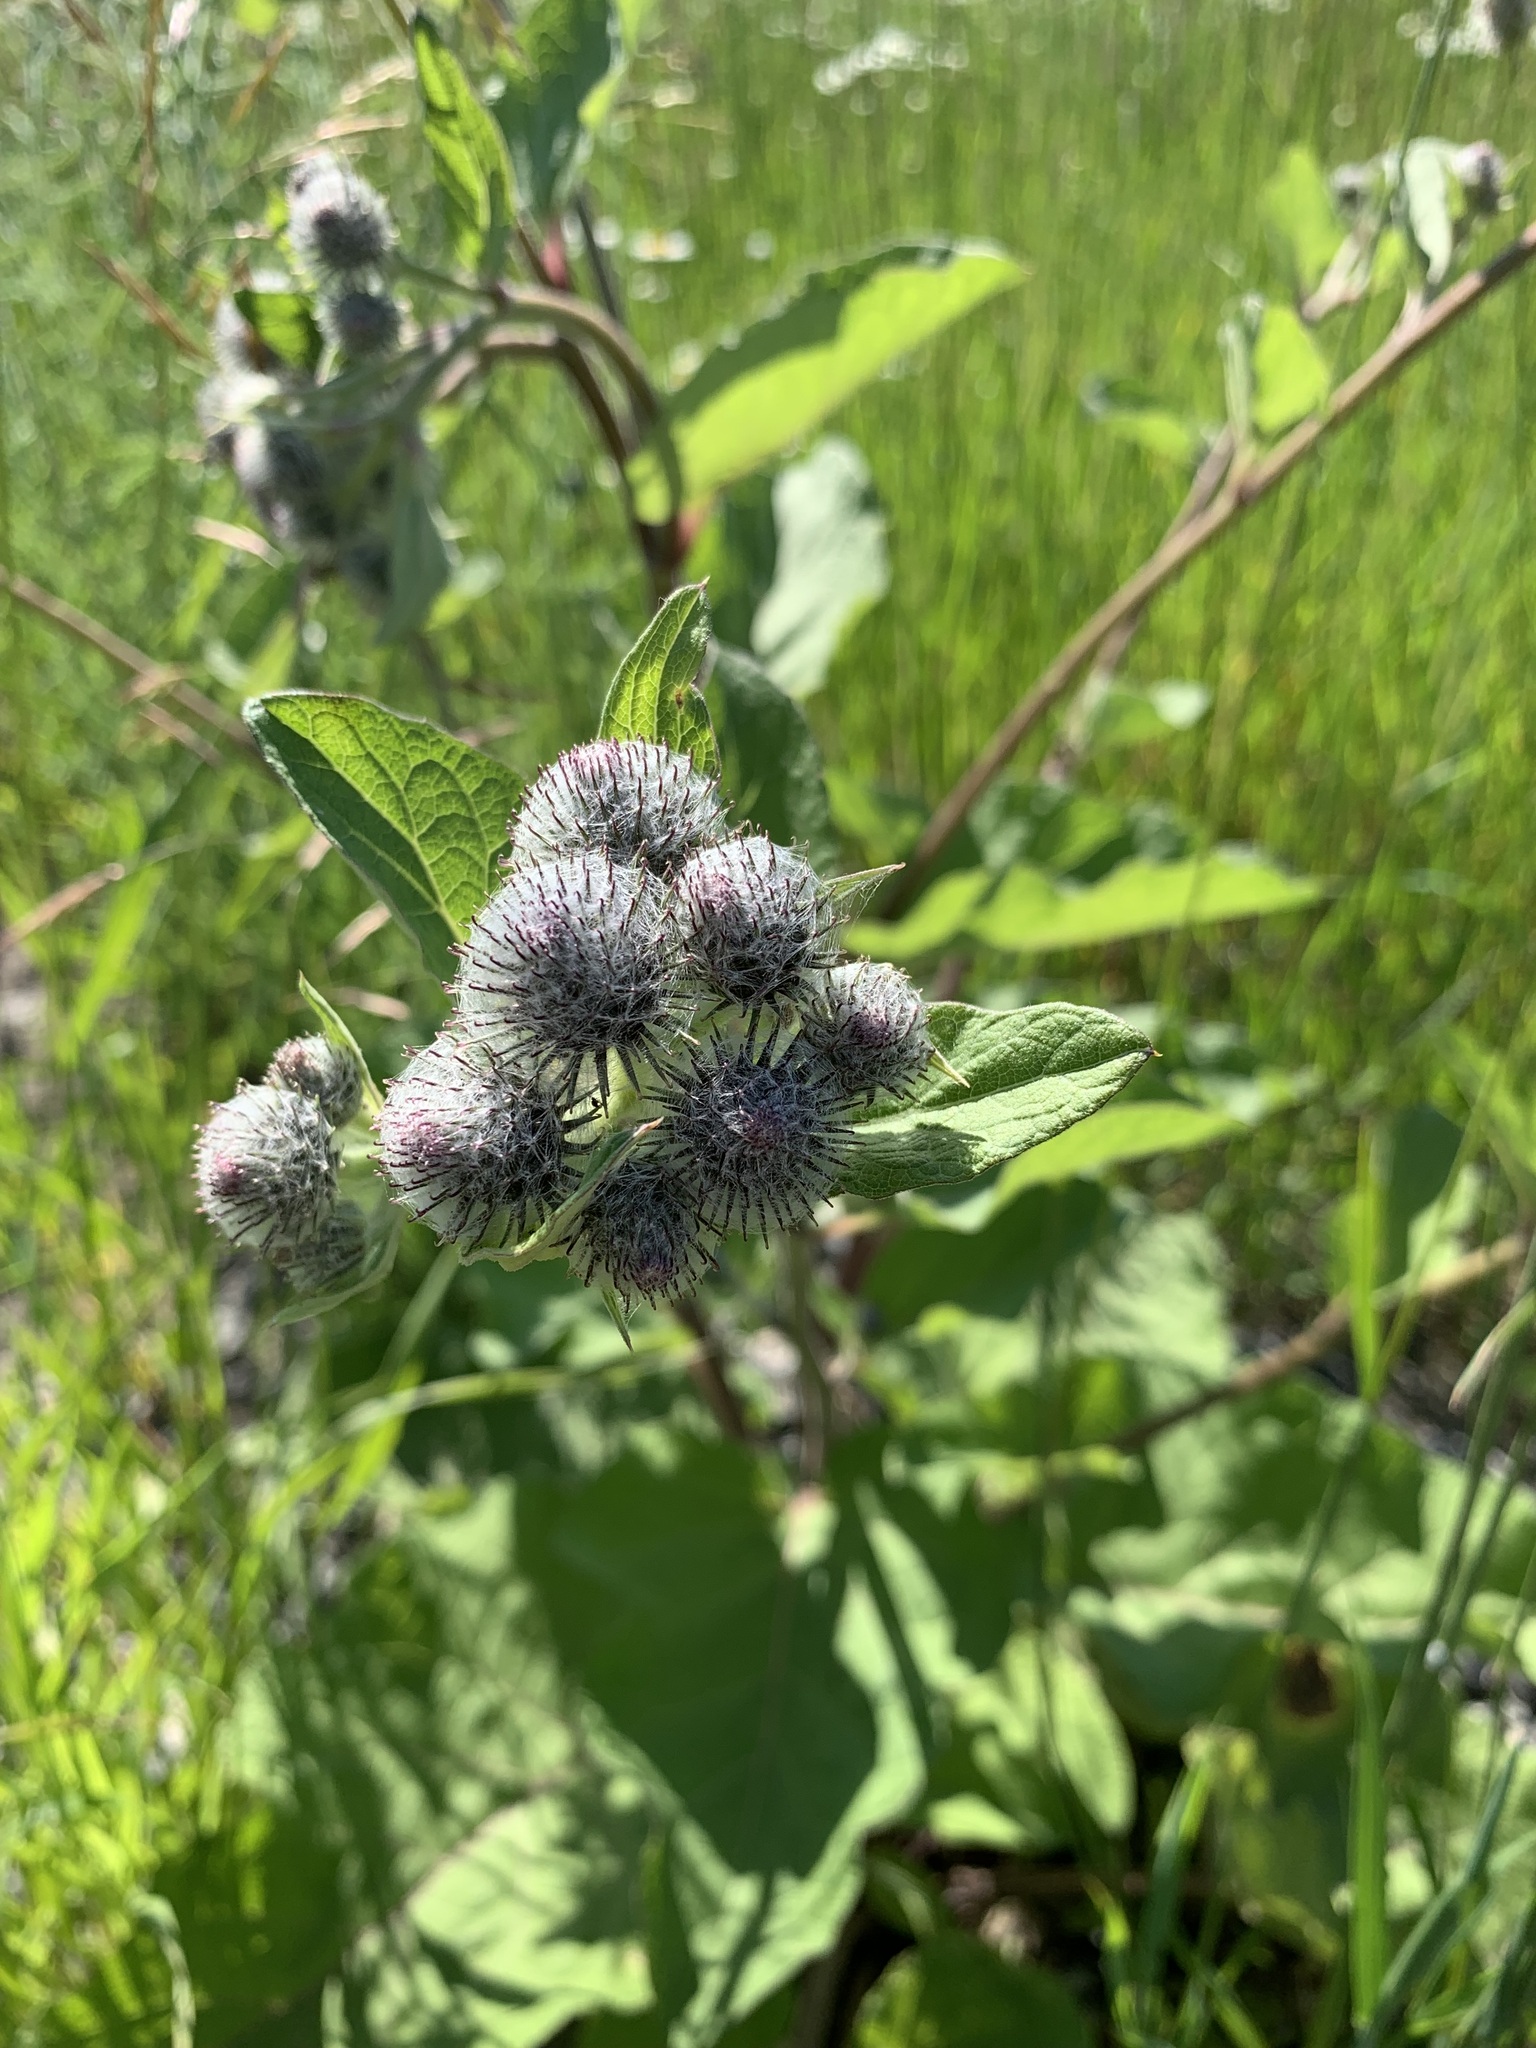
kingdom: Plantae
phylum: Tracheophyta
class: Magnoliopsida
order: Asterales
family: Asteraceae
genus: Arctium
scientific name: Arctium tomentosum
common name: Woolly burdock
